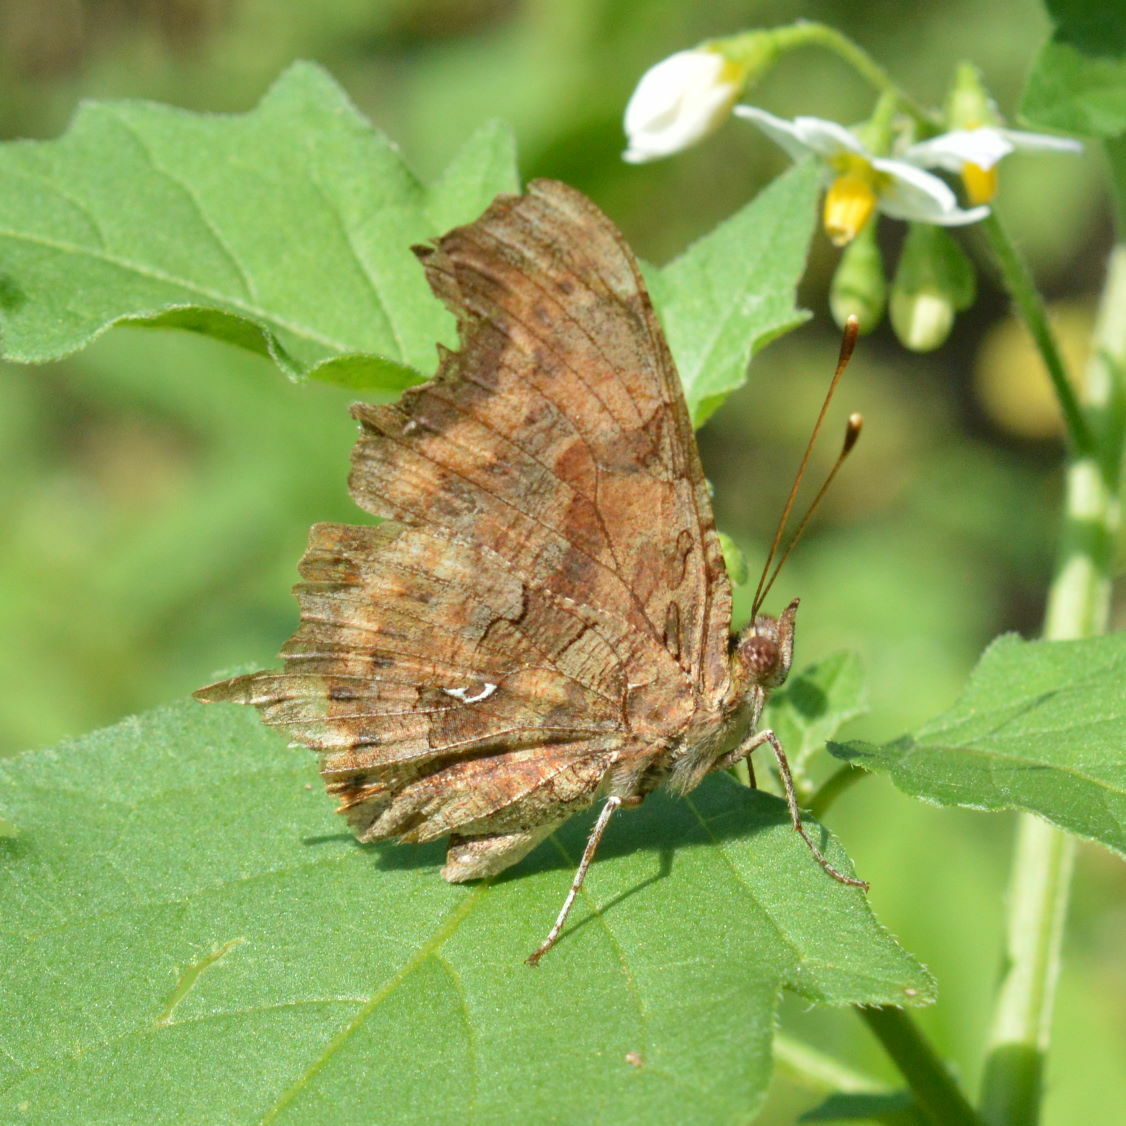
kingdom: Animalia
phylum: Arthropoda
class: Insecta
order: Lepidoptera
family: Nymphalidae
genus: Polygonia
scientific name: Polygonia c-album
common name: Comma
